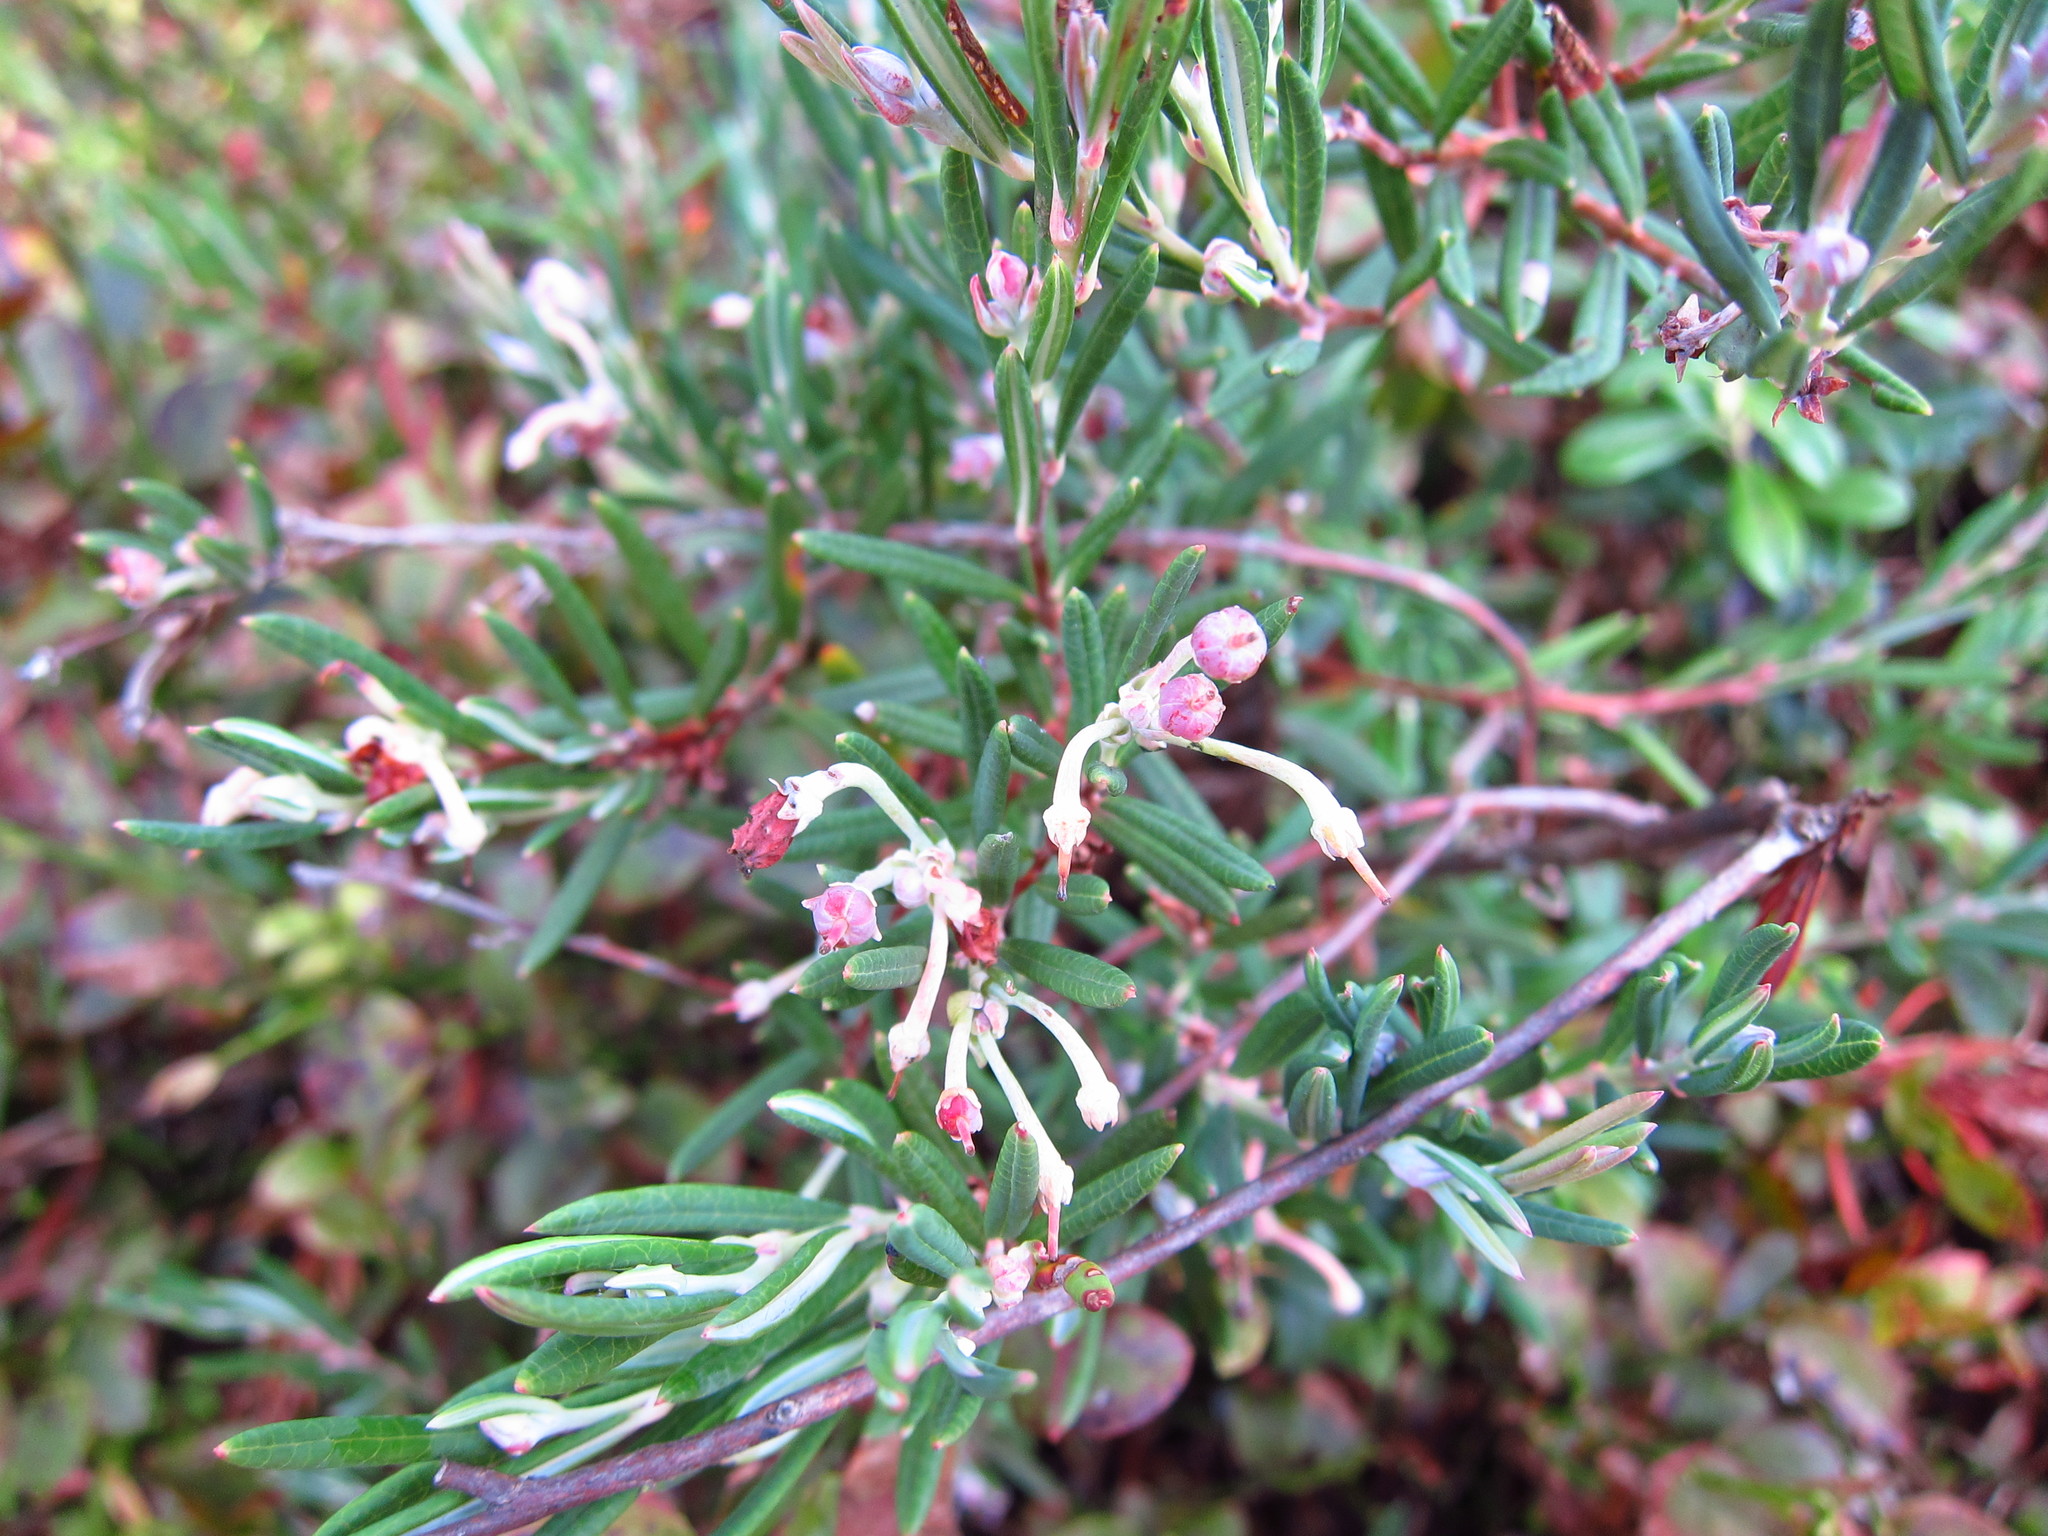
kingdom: Plantae
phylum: Tracheophyta
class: Magnoliopsida
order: Ericales
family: Ericaceae
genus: Andromeda
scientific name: Andromeda polifolia
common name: Bog-rosemary
